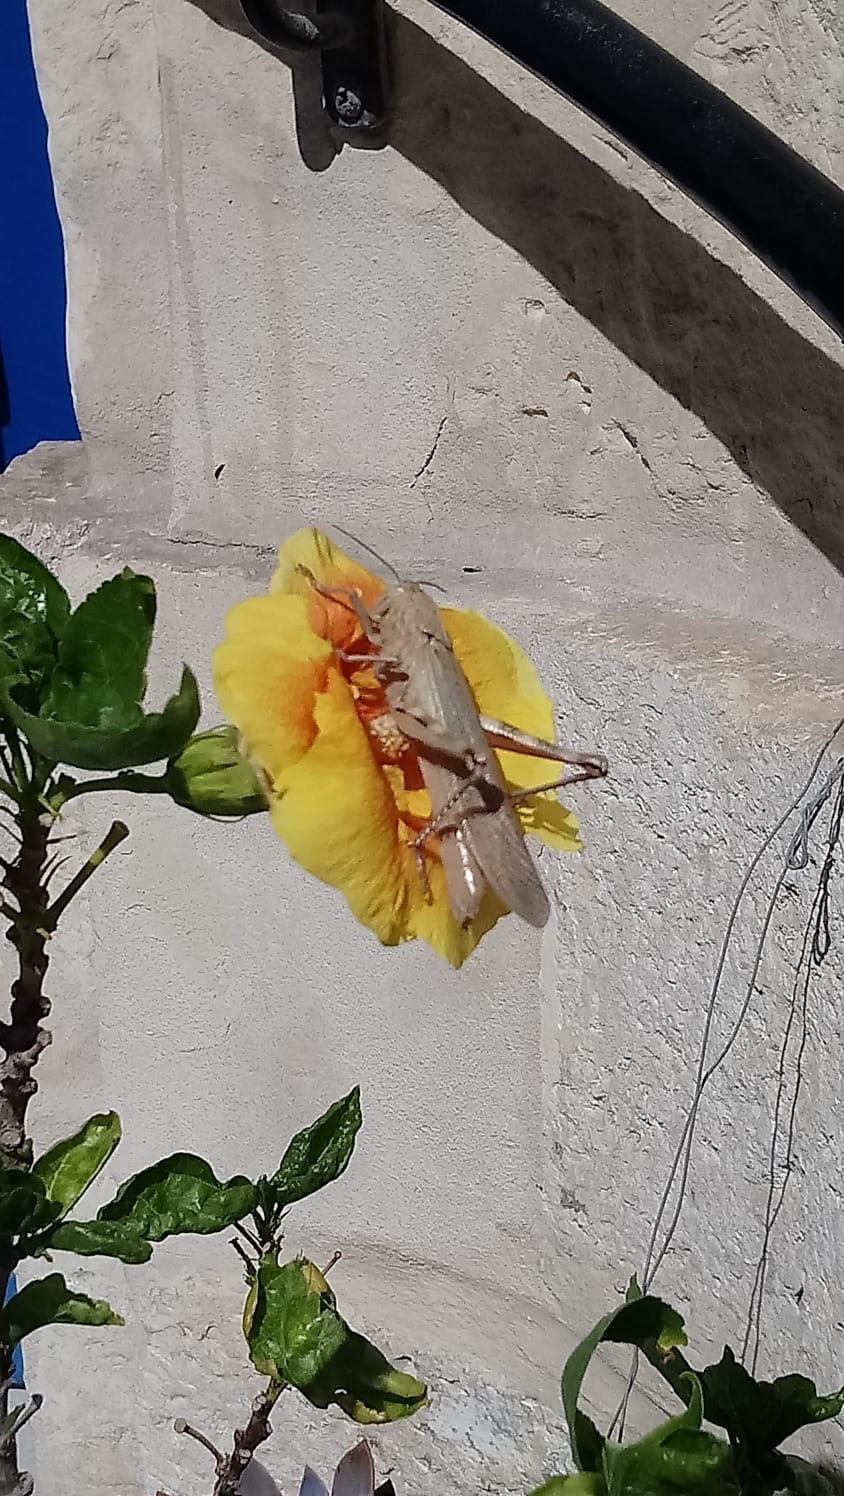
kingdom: Animalia
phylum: Arthropoda
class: Insecta
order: Orthoptera
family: Acrididae
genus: Anacridium
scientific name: Anacridium aegyptium
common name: Egyptian grasshopper
